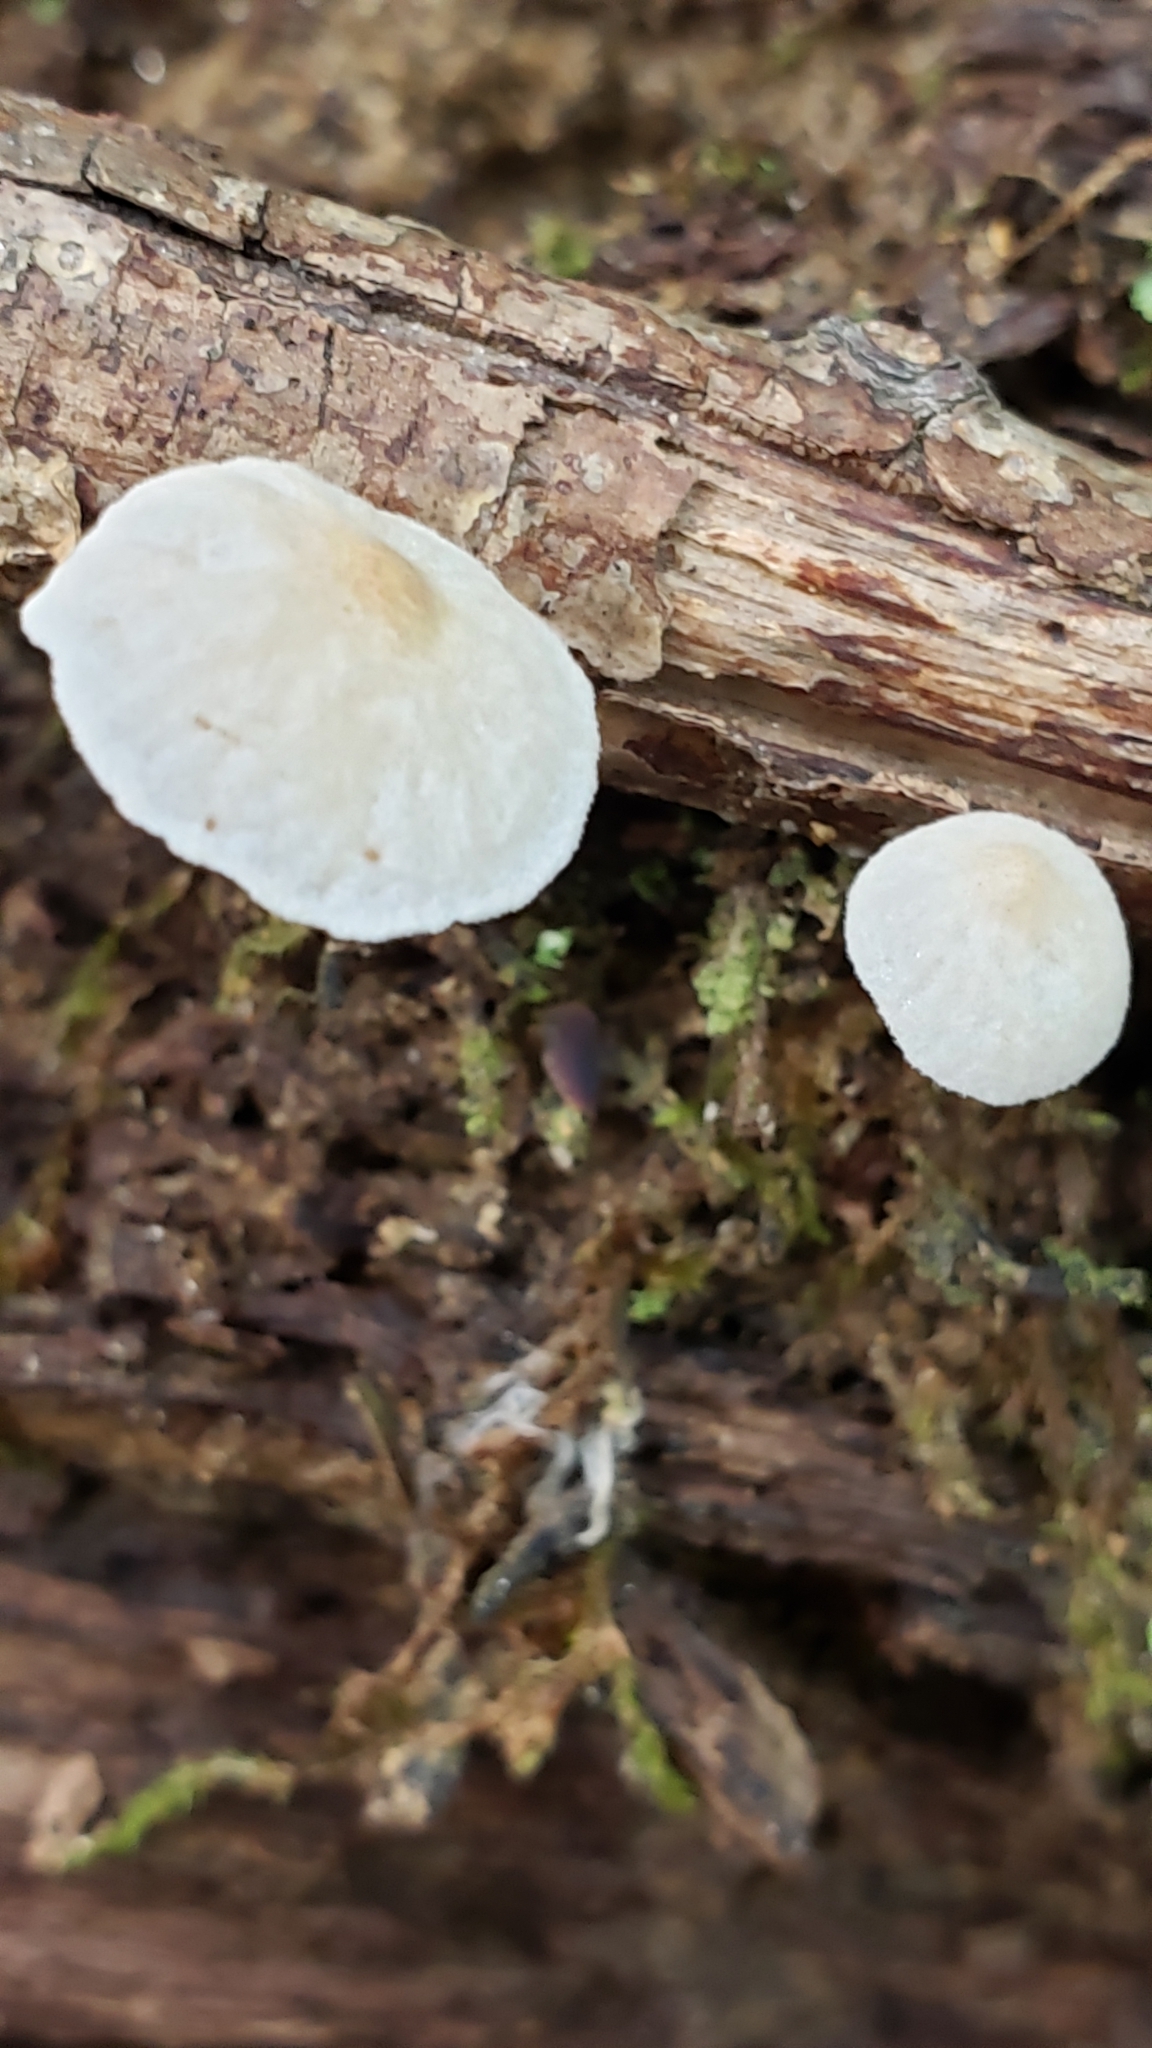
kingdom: Fungi
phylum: Basidiomycota
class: Agaricomycetes
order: Agaricales
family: Omphalotaceae
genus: Marasmiellus
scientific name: Marasmiellus candidus
